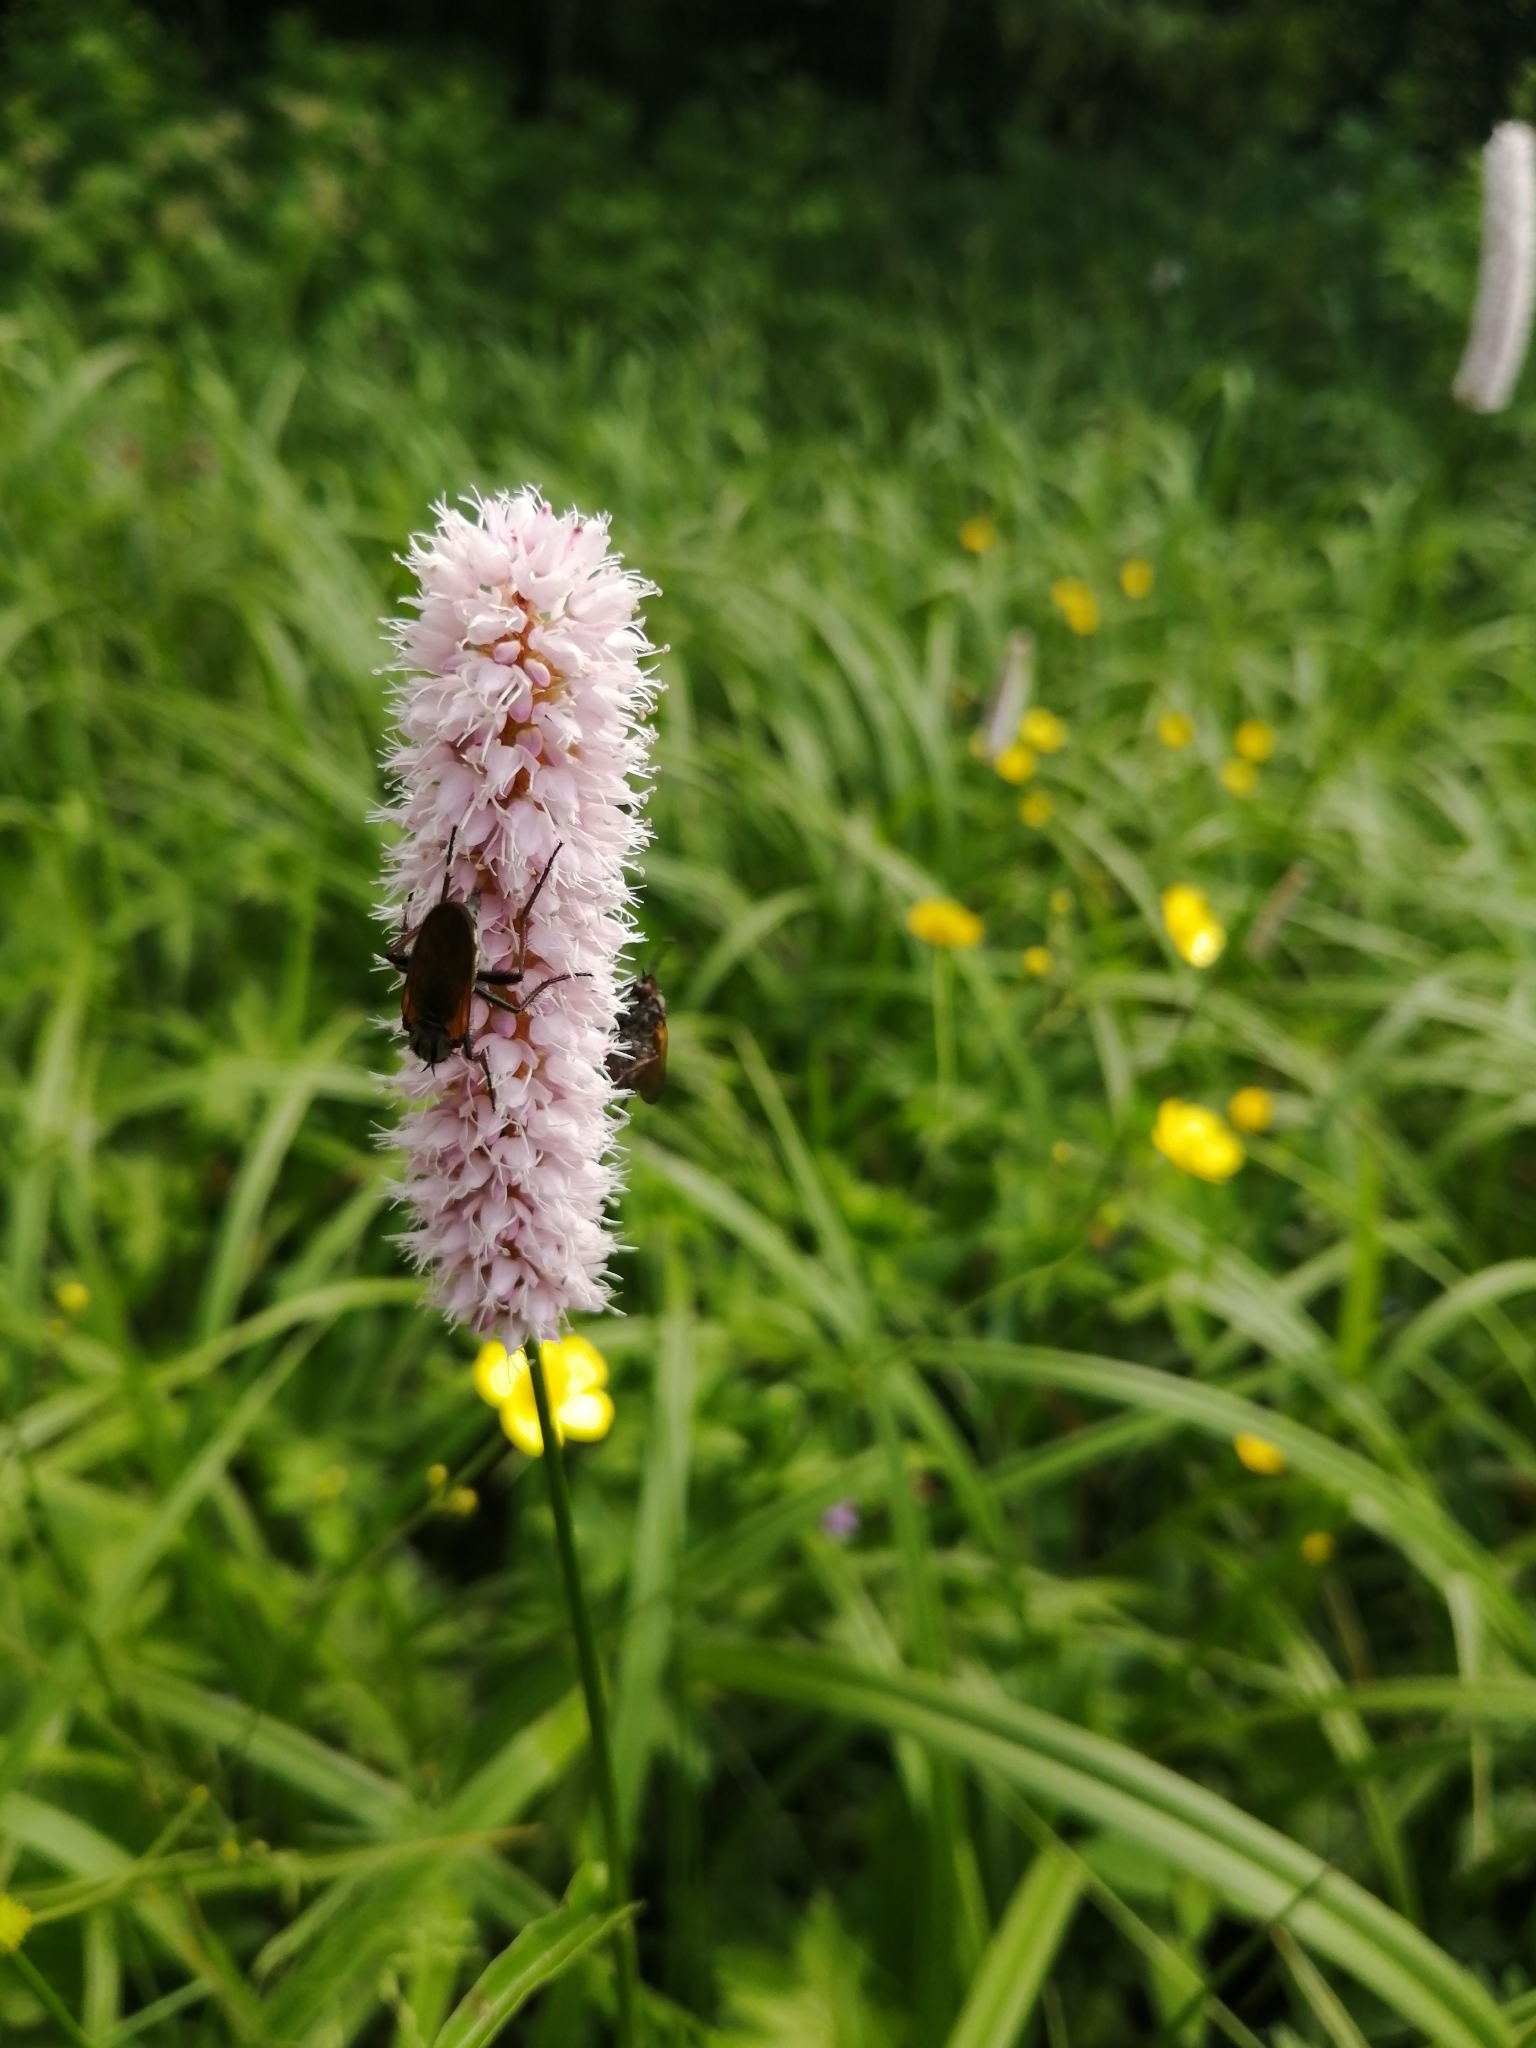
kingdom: Plantae
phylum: Tracheophyta
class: Magnoliopsida
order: Caryophyllales
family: Polygonaceae
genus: Bistorta
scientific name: Bistorta officinalis
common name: Common bistort
